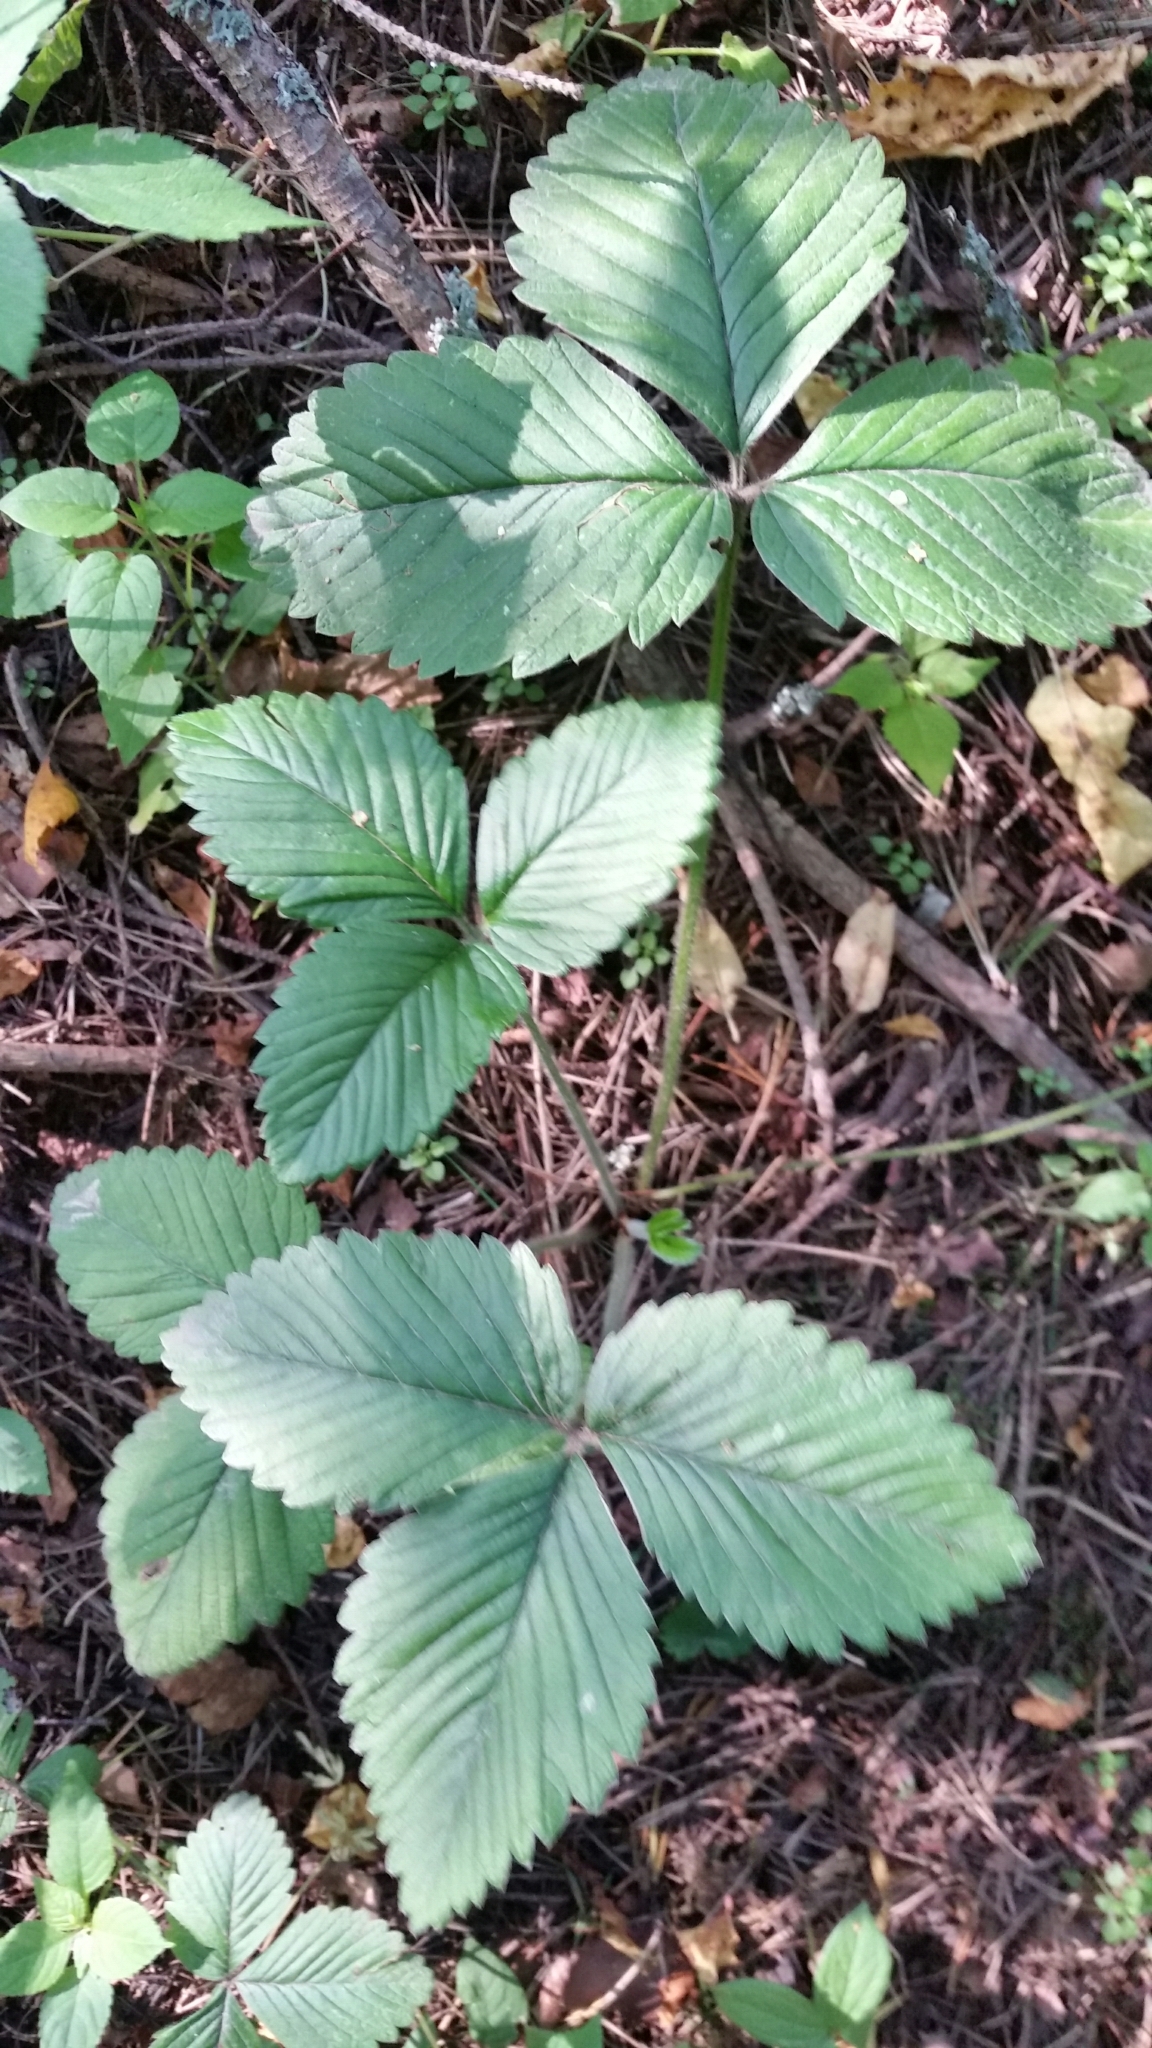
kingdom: Plantae
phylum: Tracheophyta
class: Magnoliopsida
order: Rosales
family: Rosaceae
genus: Fragaria
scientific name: Fragaria moschata
